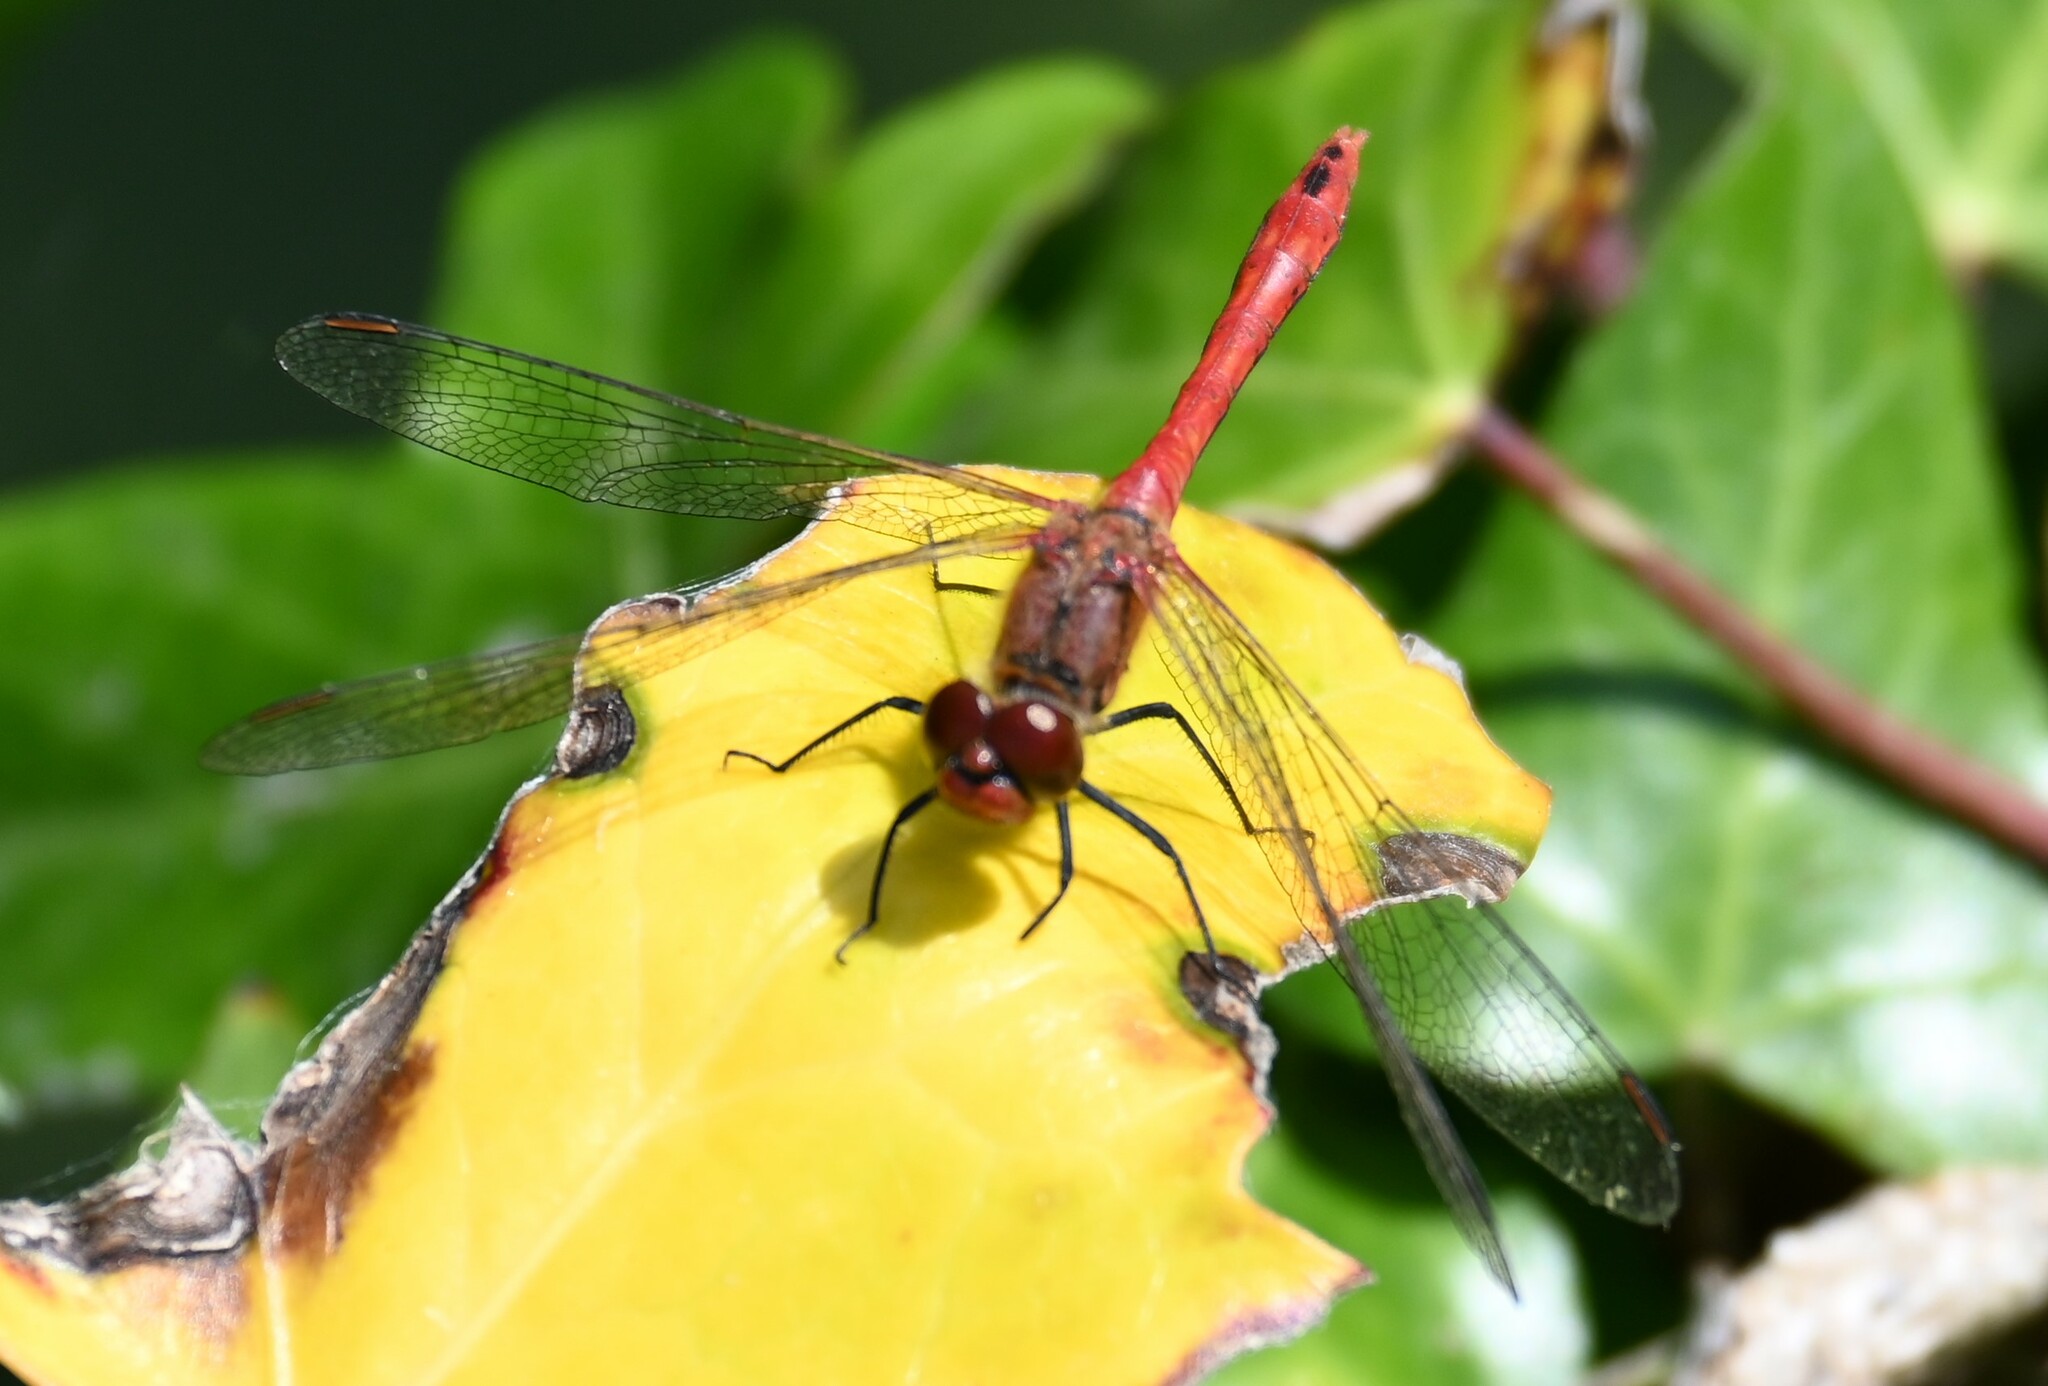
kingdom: Animalia
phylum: Arthropoda
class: Insecta
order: Odonata
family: Libellulidae
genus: Sympetrum
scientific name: Sympetrum sanguineum
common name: Ruddy darter
